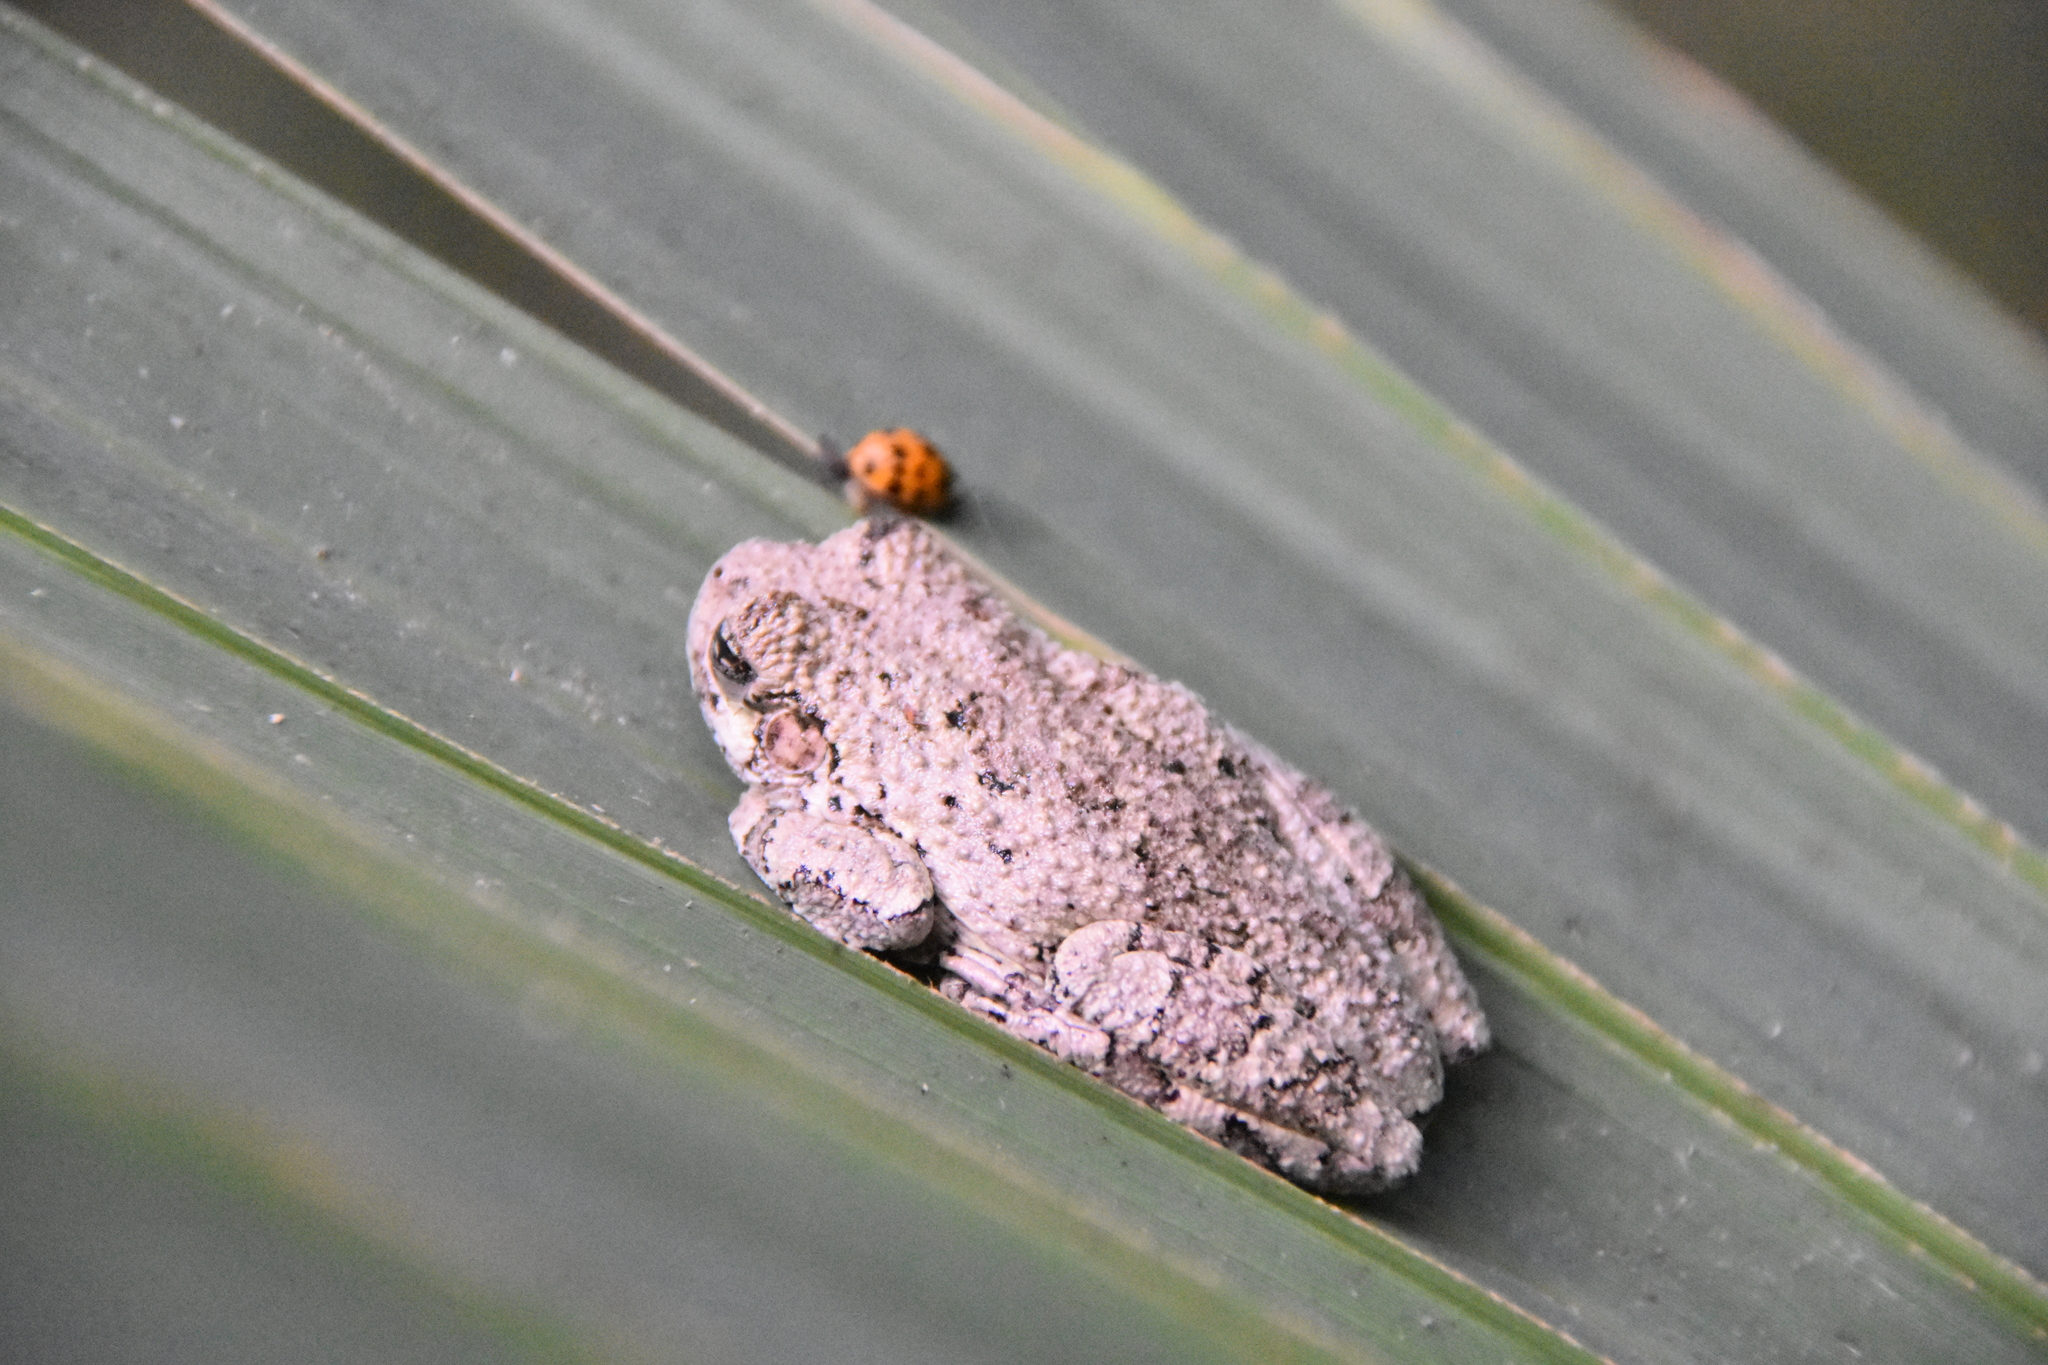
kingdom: Animalia
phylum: Chordata
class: Amphibia
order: Anura
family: Hylidae
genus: Dryophytes
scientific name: Dryophytes chrysoscelis
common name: Cope's gray treefrog
